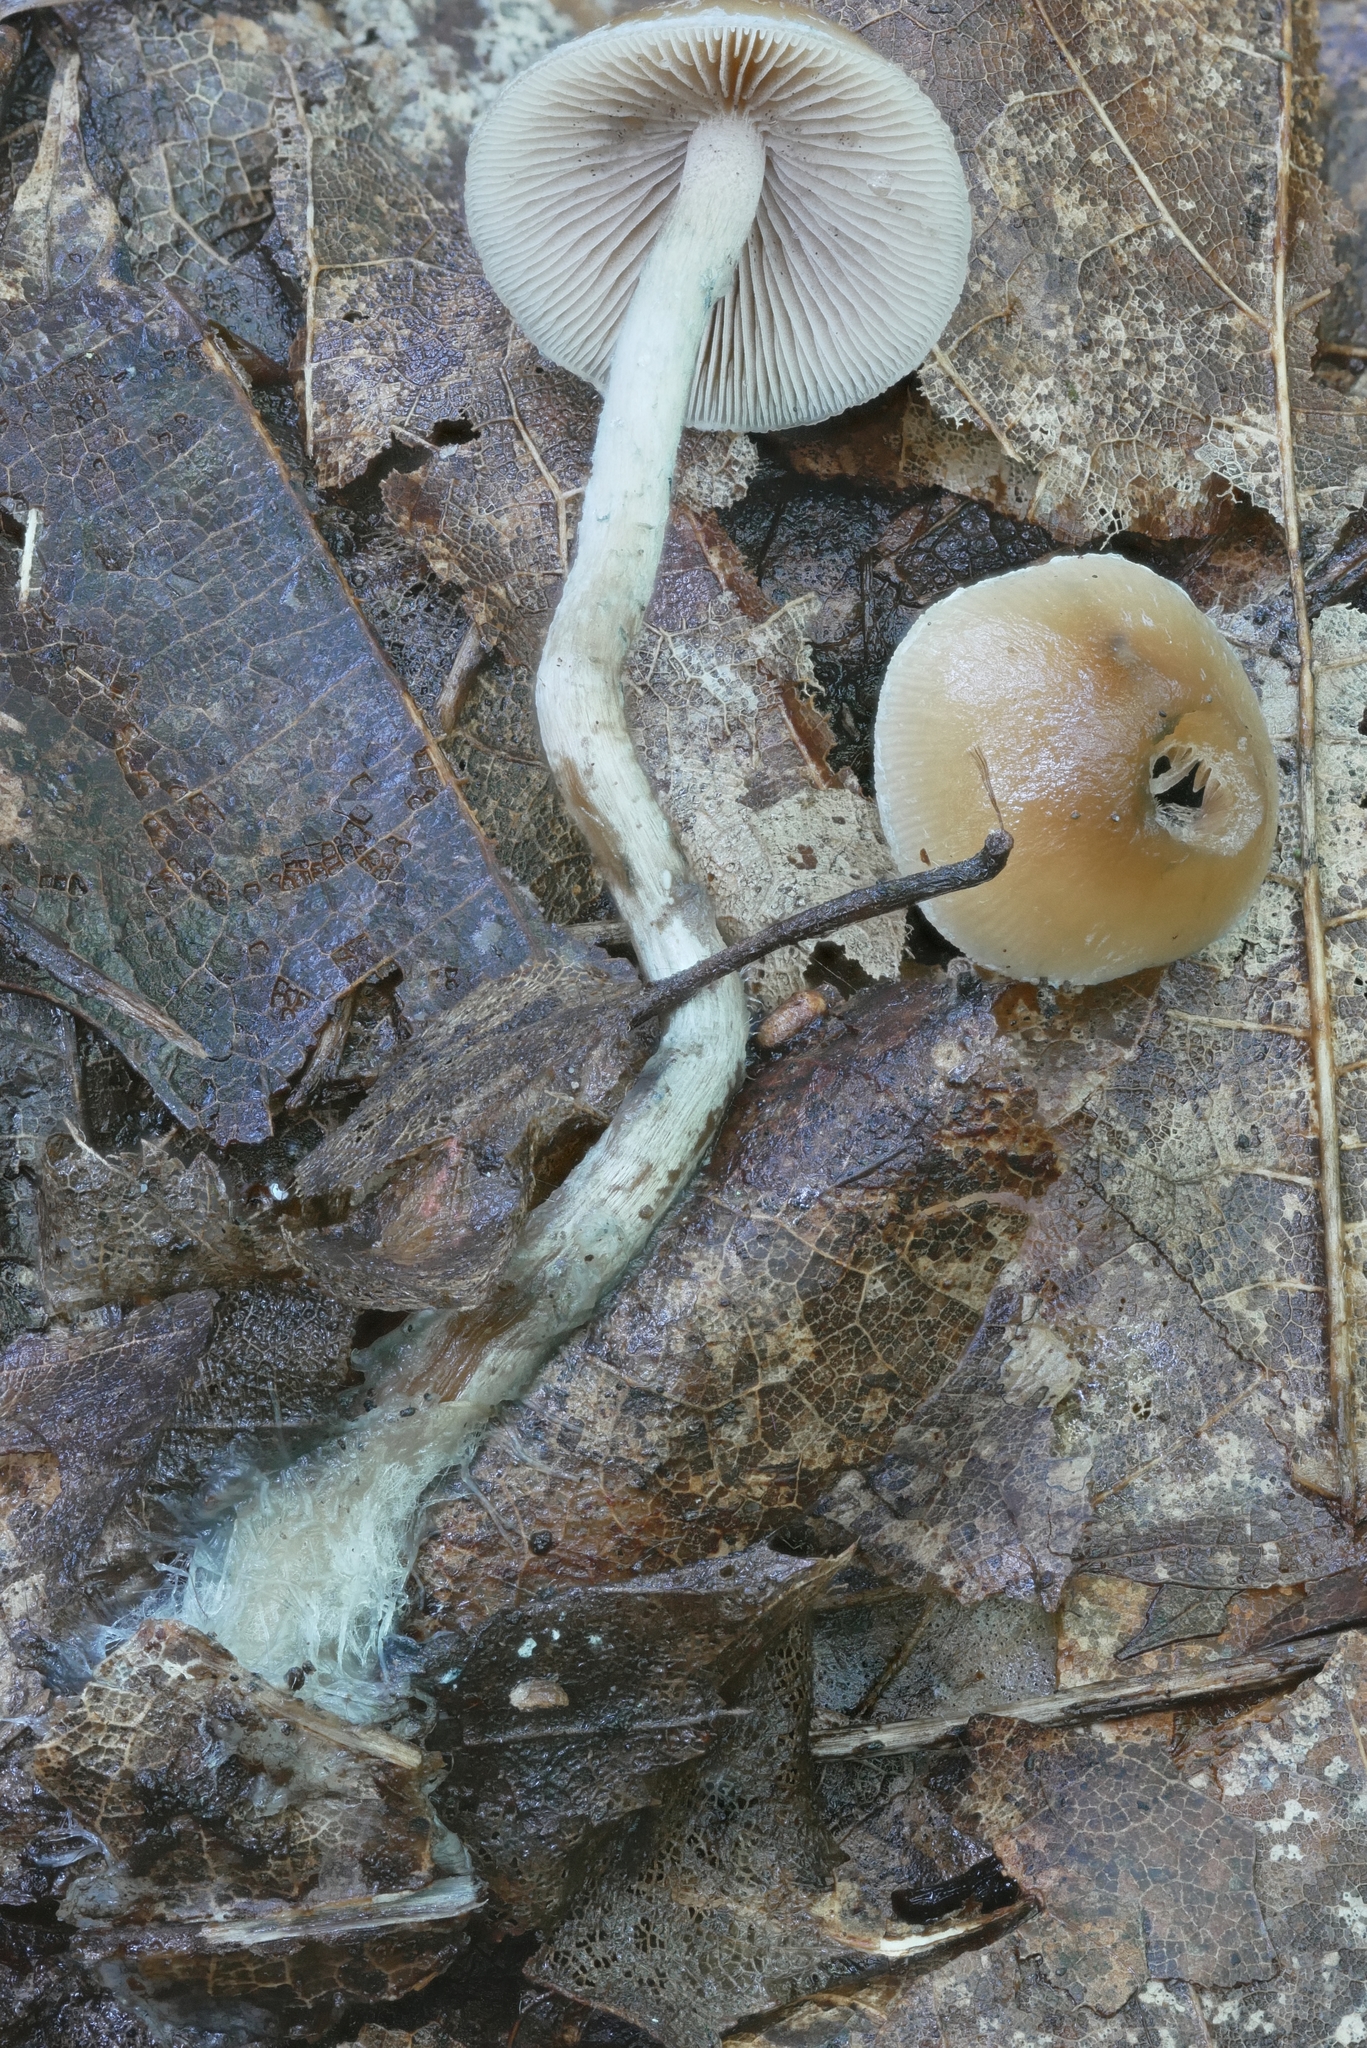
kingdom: Fungi
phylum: Basidiomycota
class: Agaricomycetes
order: Agaricales
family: Hymenogastraceae
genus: Psilocybe
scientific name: Psilocybe caerulipes
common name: Blue-foot
